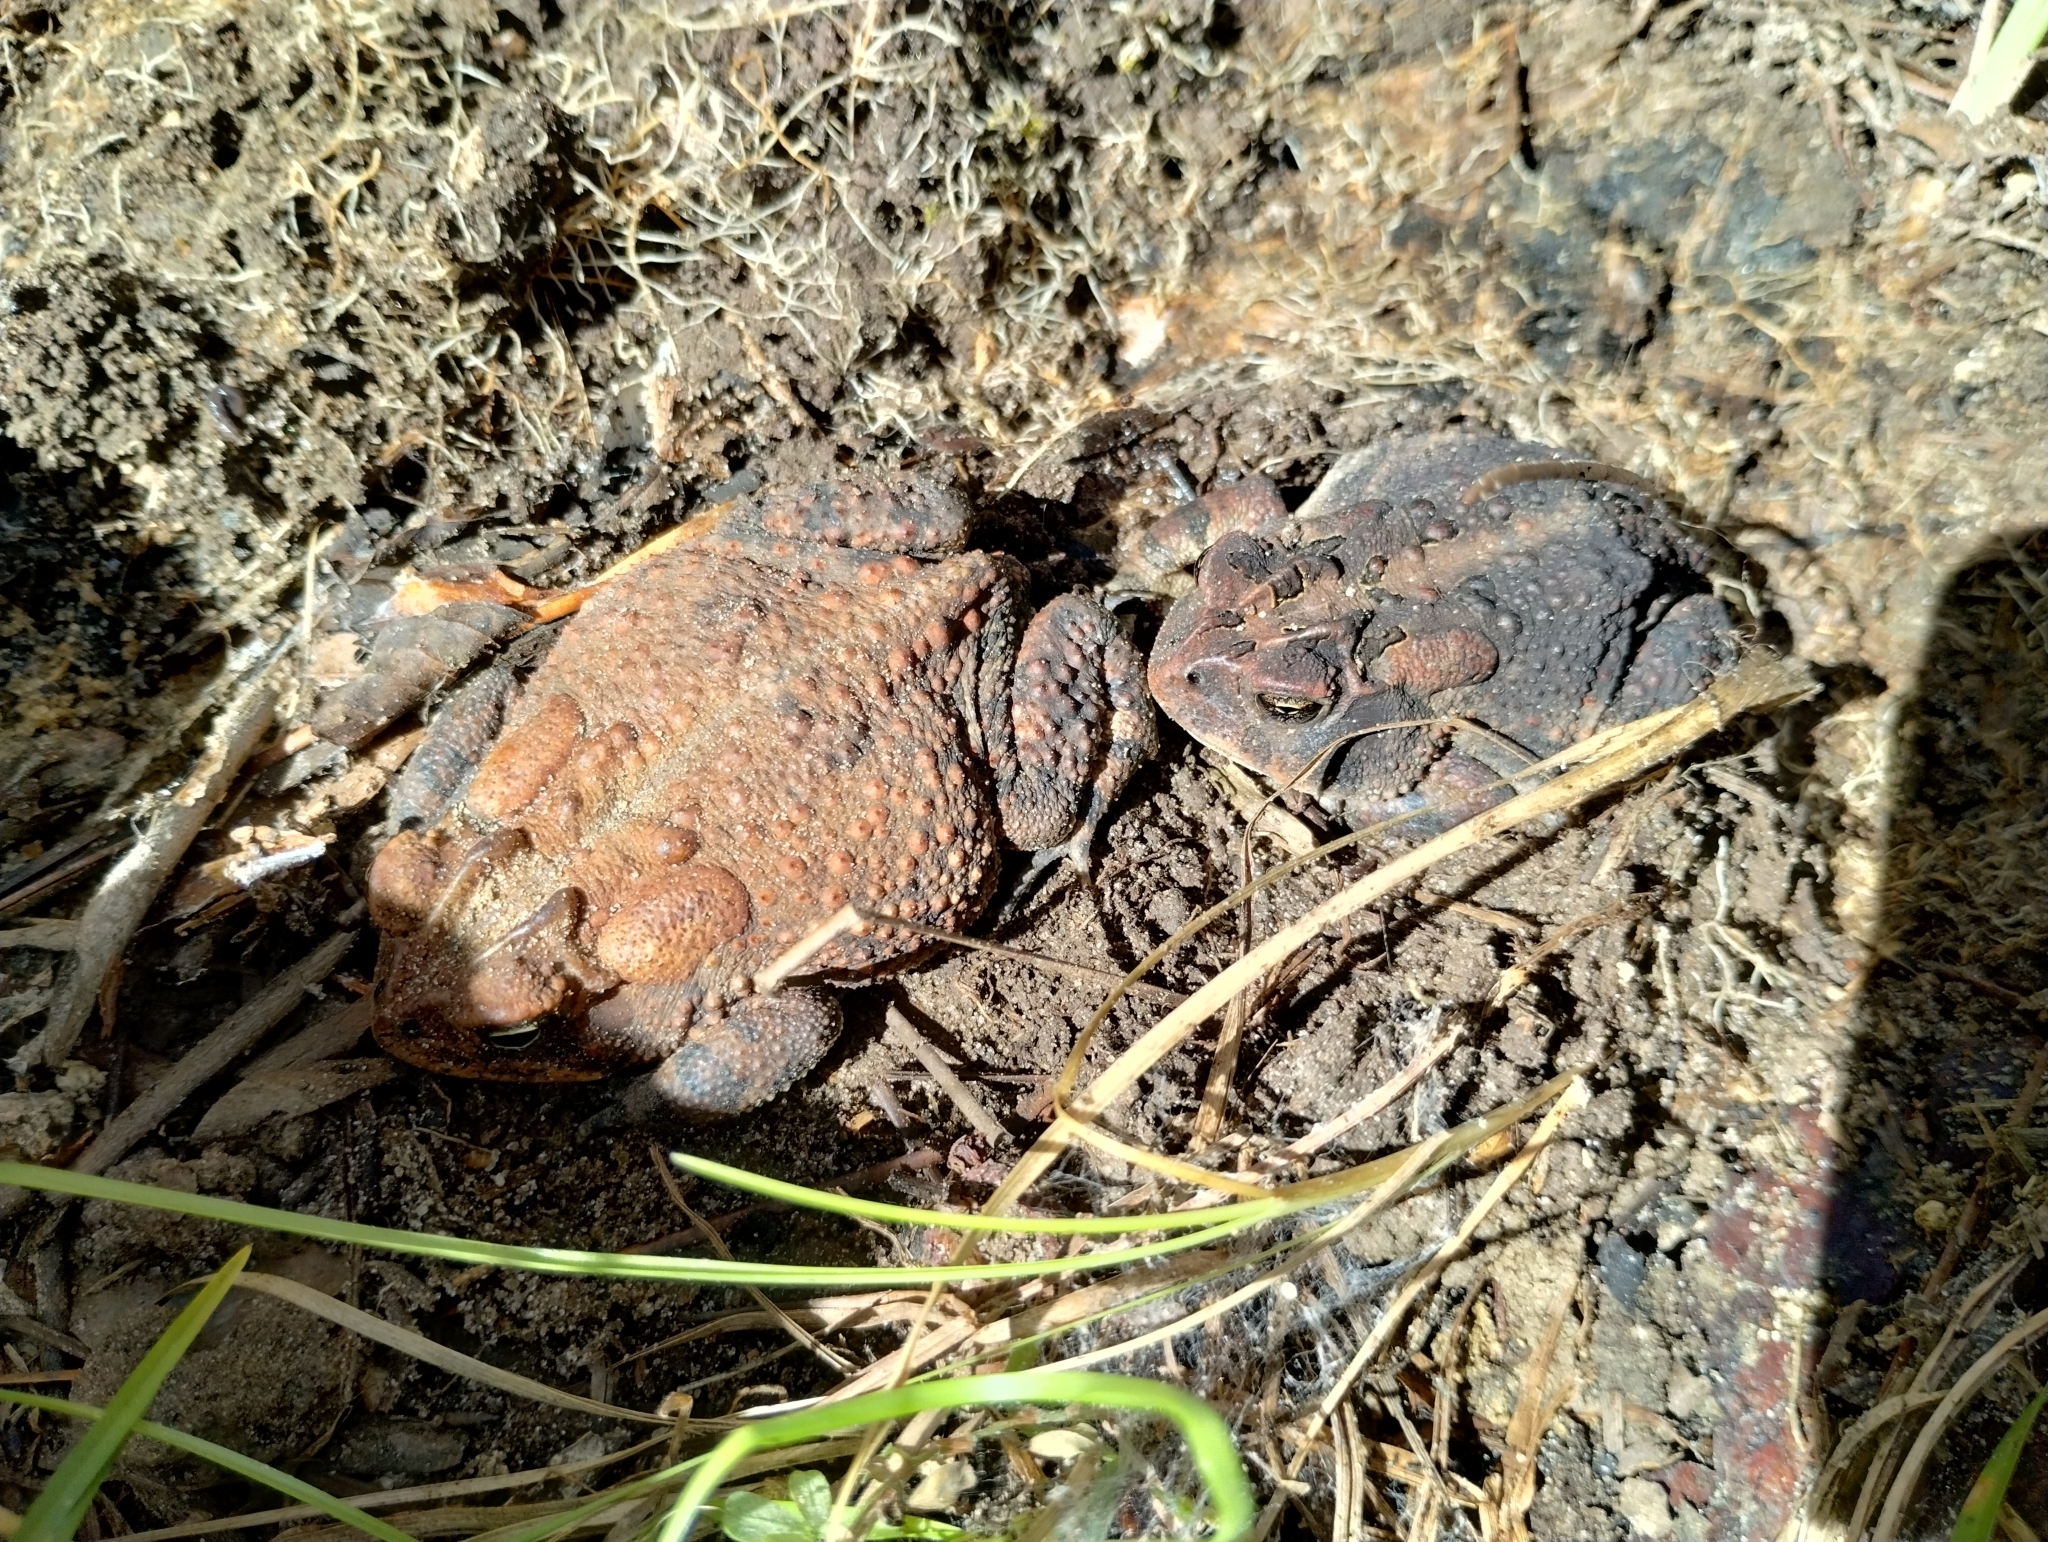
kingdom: Animalia
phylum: Chordata
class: Amphibia
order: Anura
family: Bufonidae
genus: Anaxyrus
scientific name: Anaxyrus terrestris
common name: Southern toad
